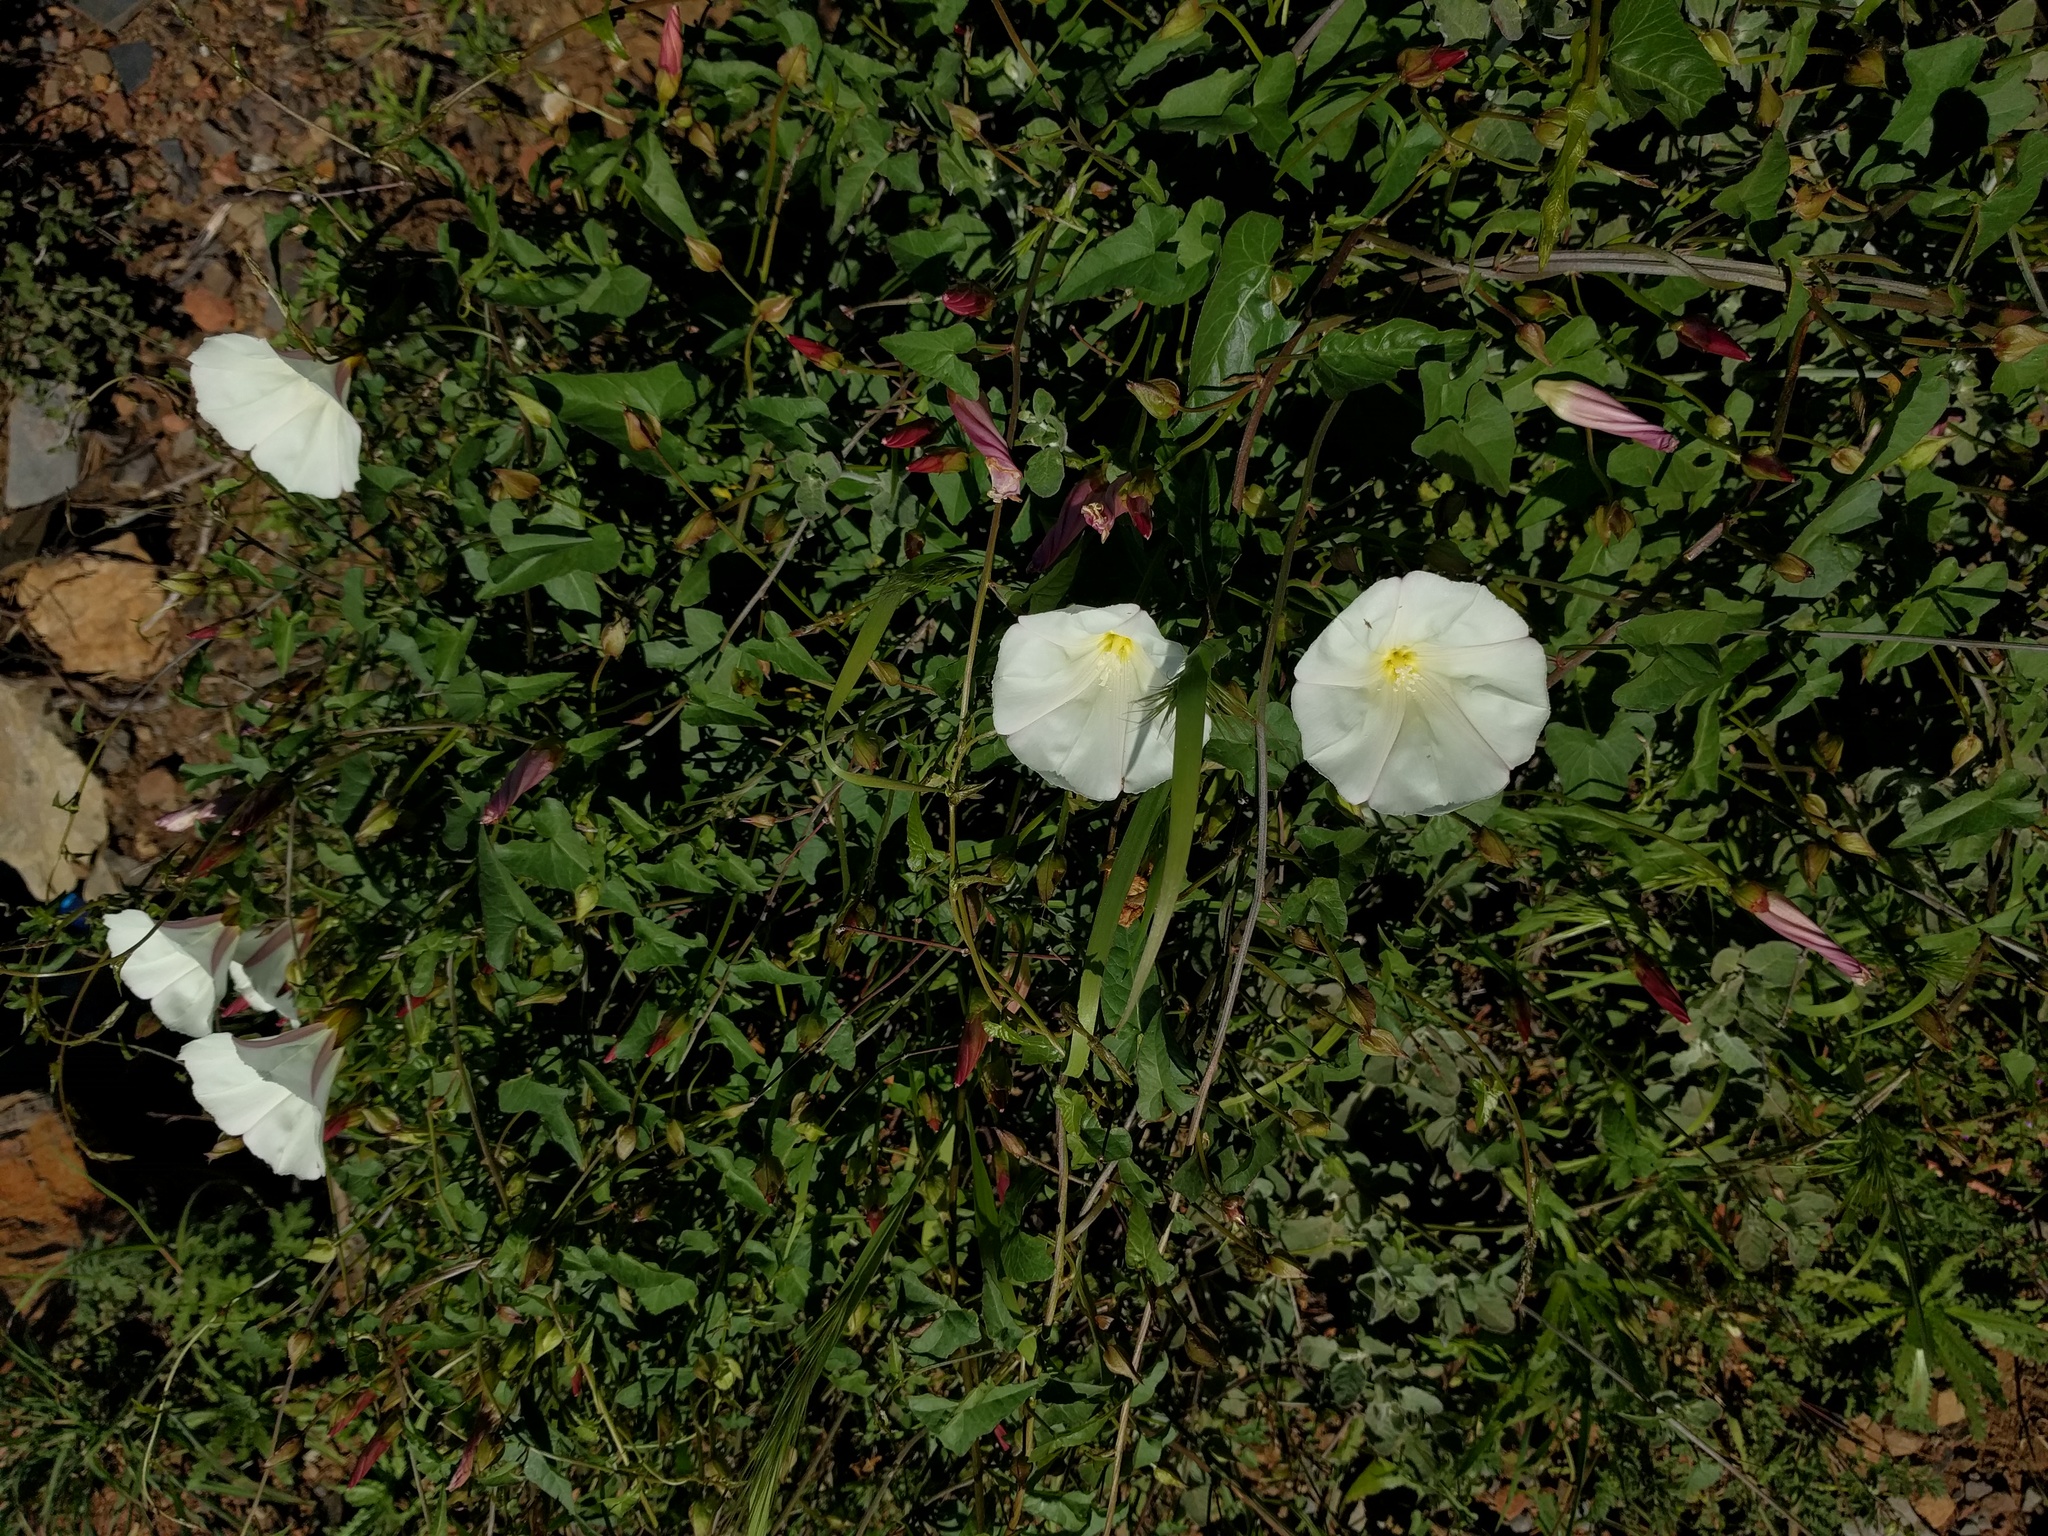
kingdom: Plantae
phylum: Tracheophyta
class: Magnoliopsida
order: Solanales
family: Convolvulaceae
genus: Calystegia
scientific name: Calystegia macrostegia
